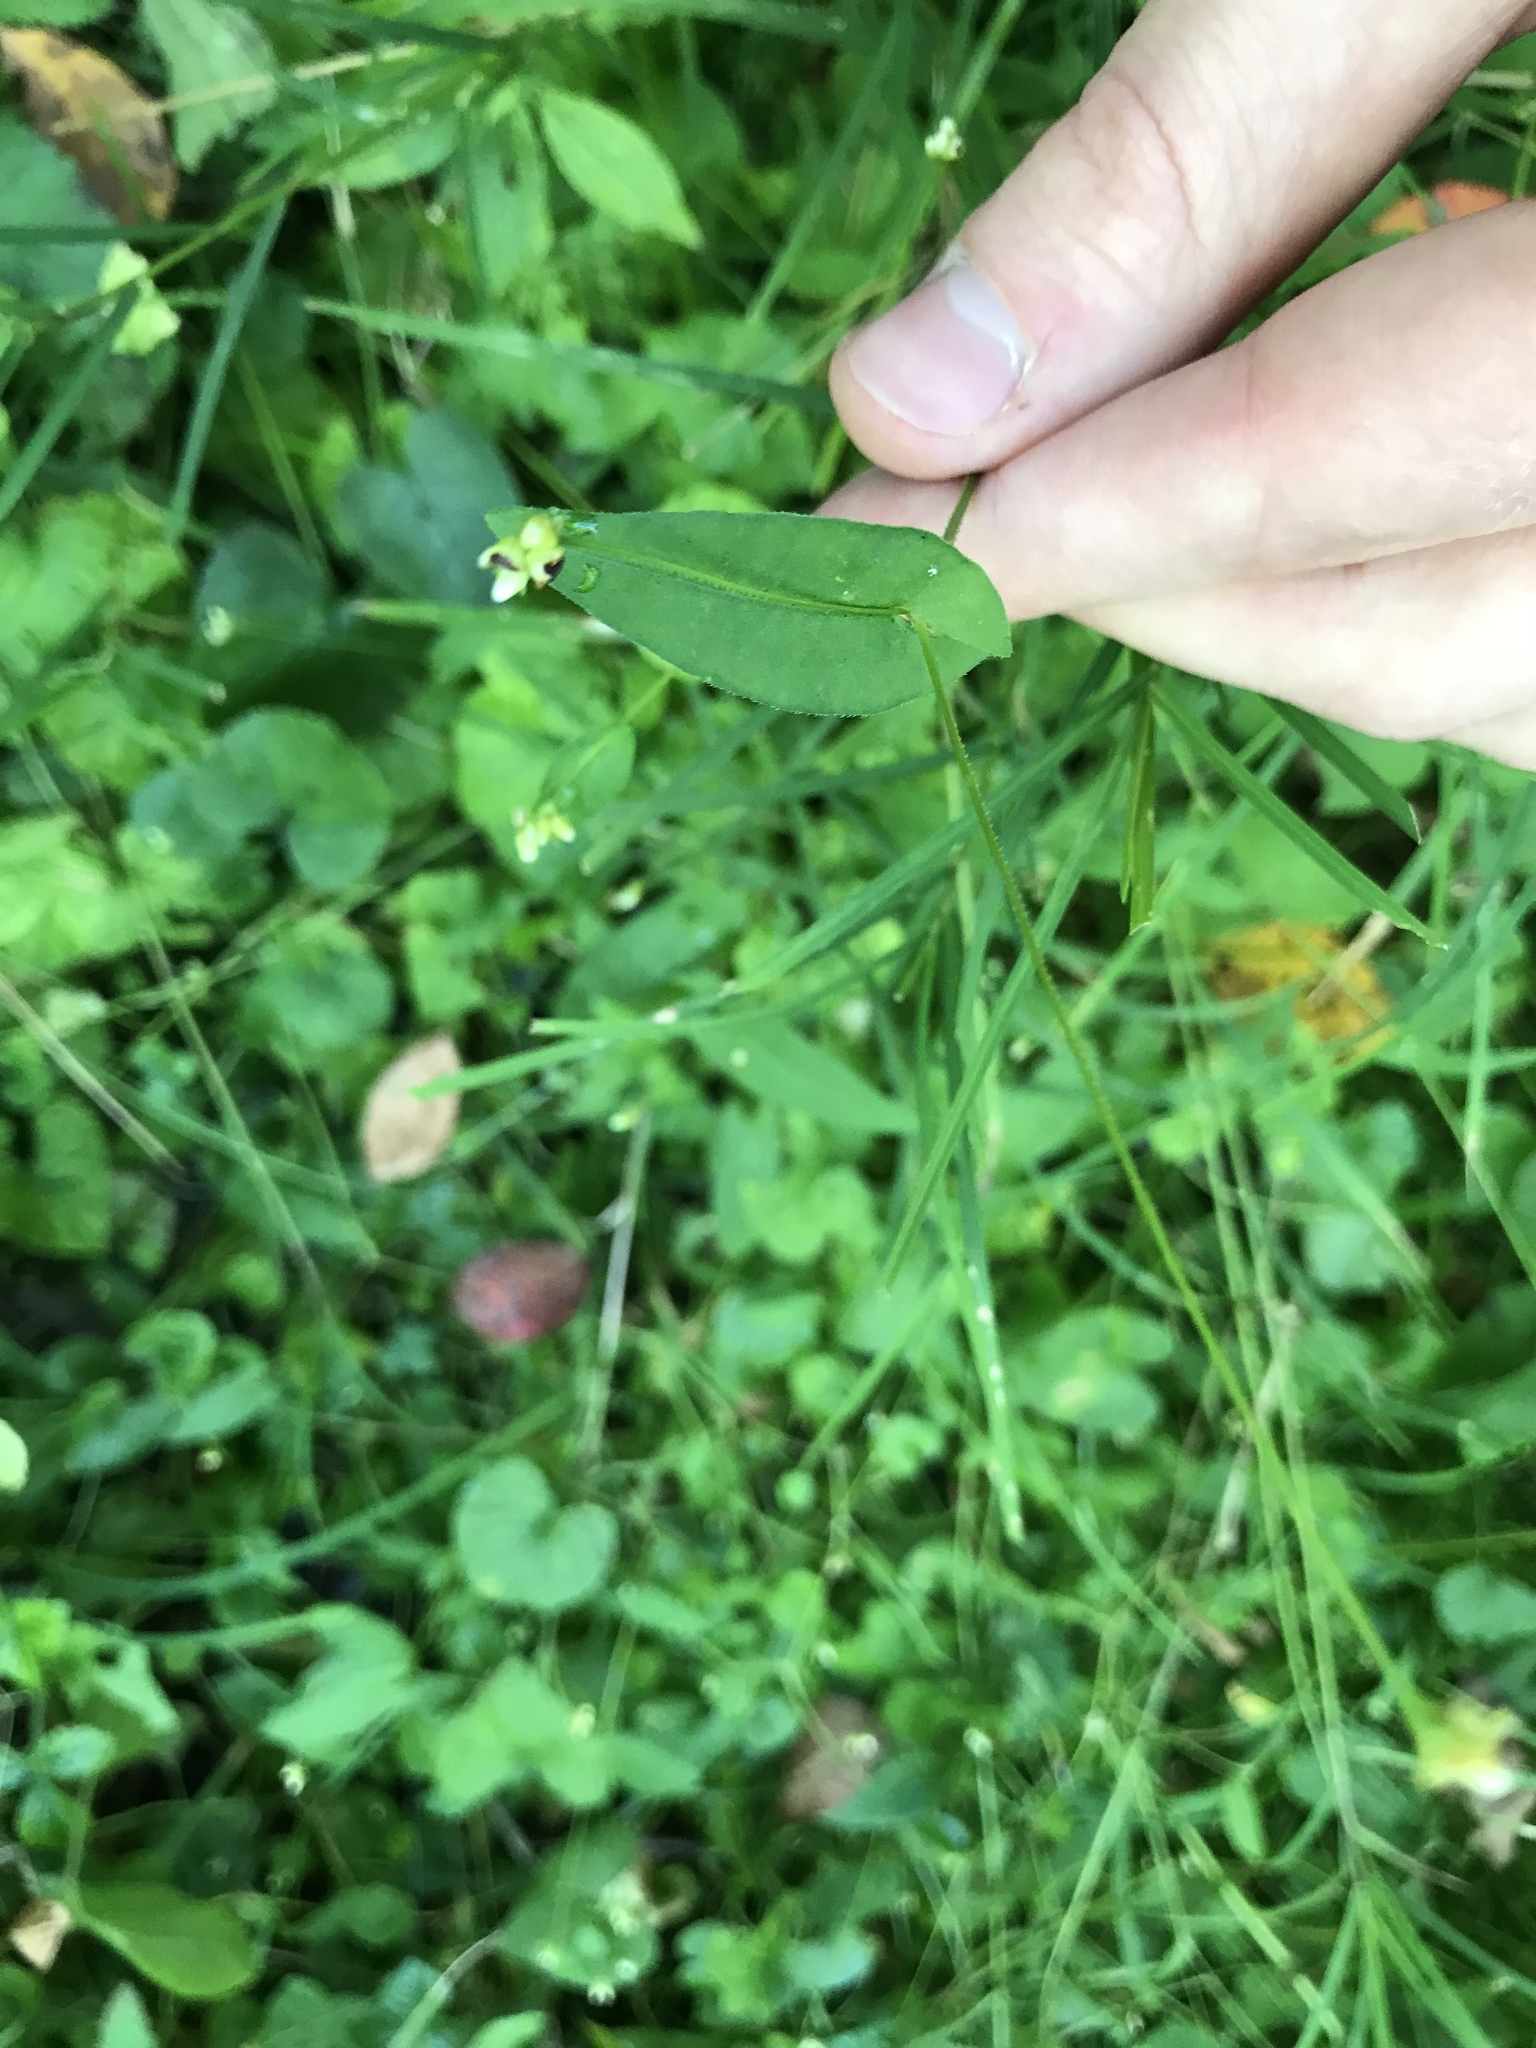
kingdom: Plantae
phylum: Tracheophyta
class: Magnoliopsida
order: Caryophyllales
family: Polygonaceae
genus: Persicaria
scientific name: Persicaria sagittata
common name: American tearthumb
